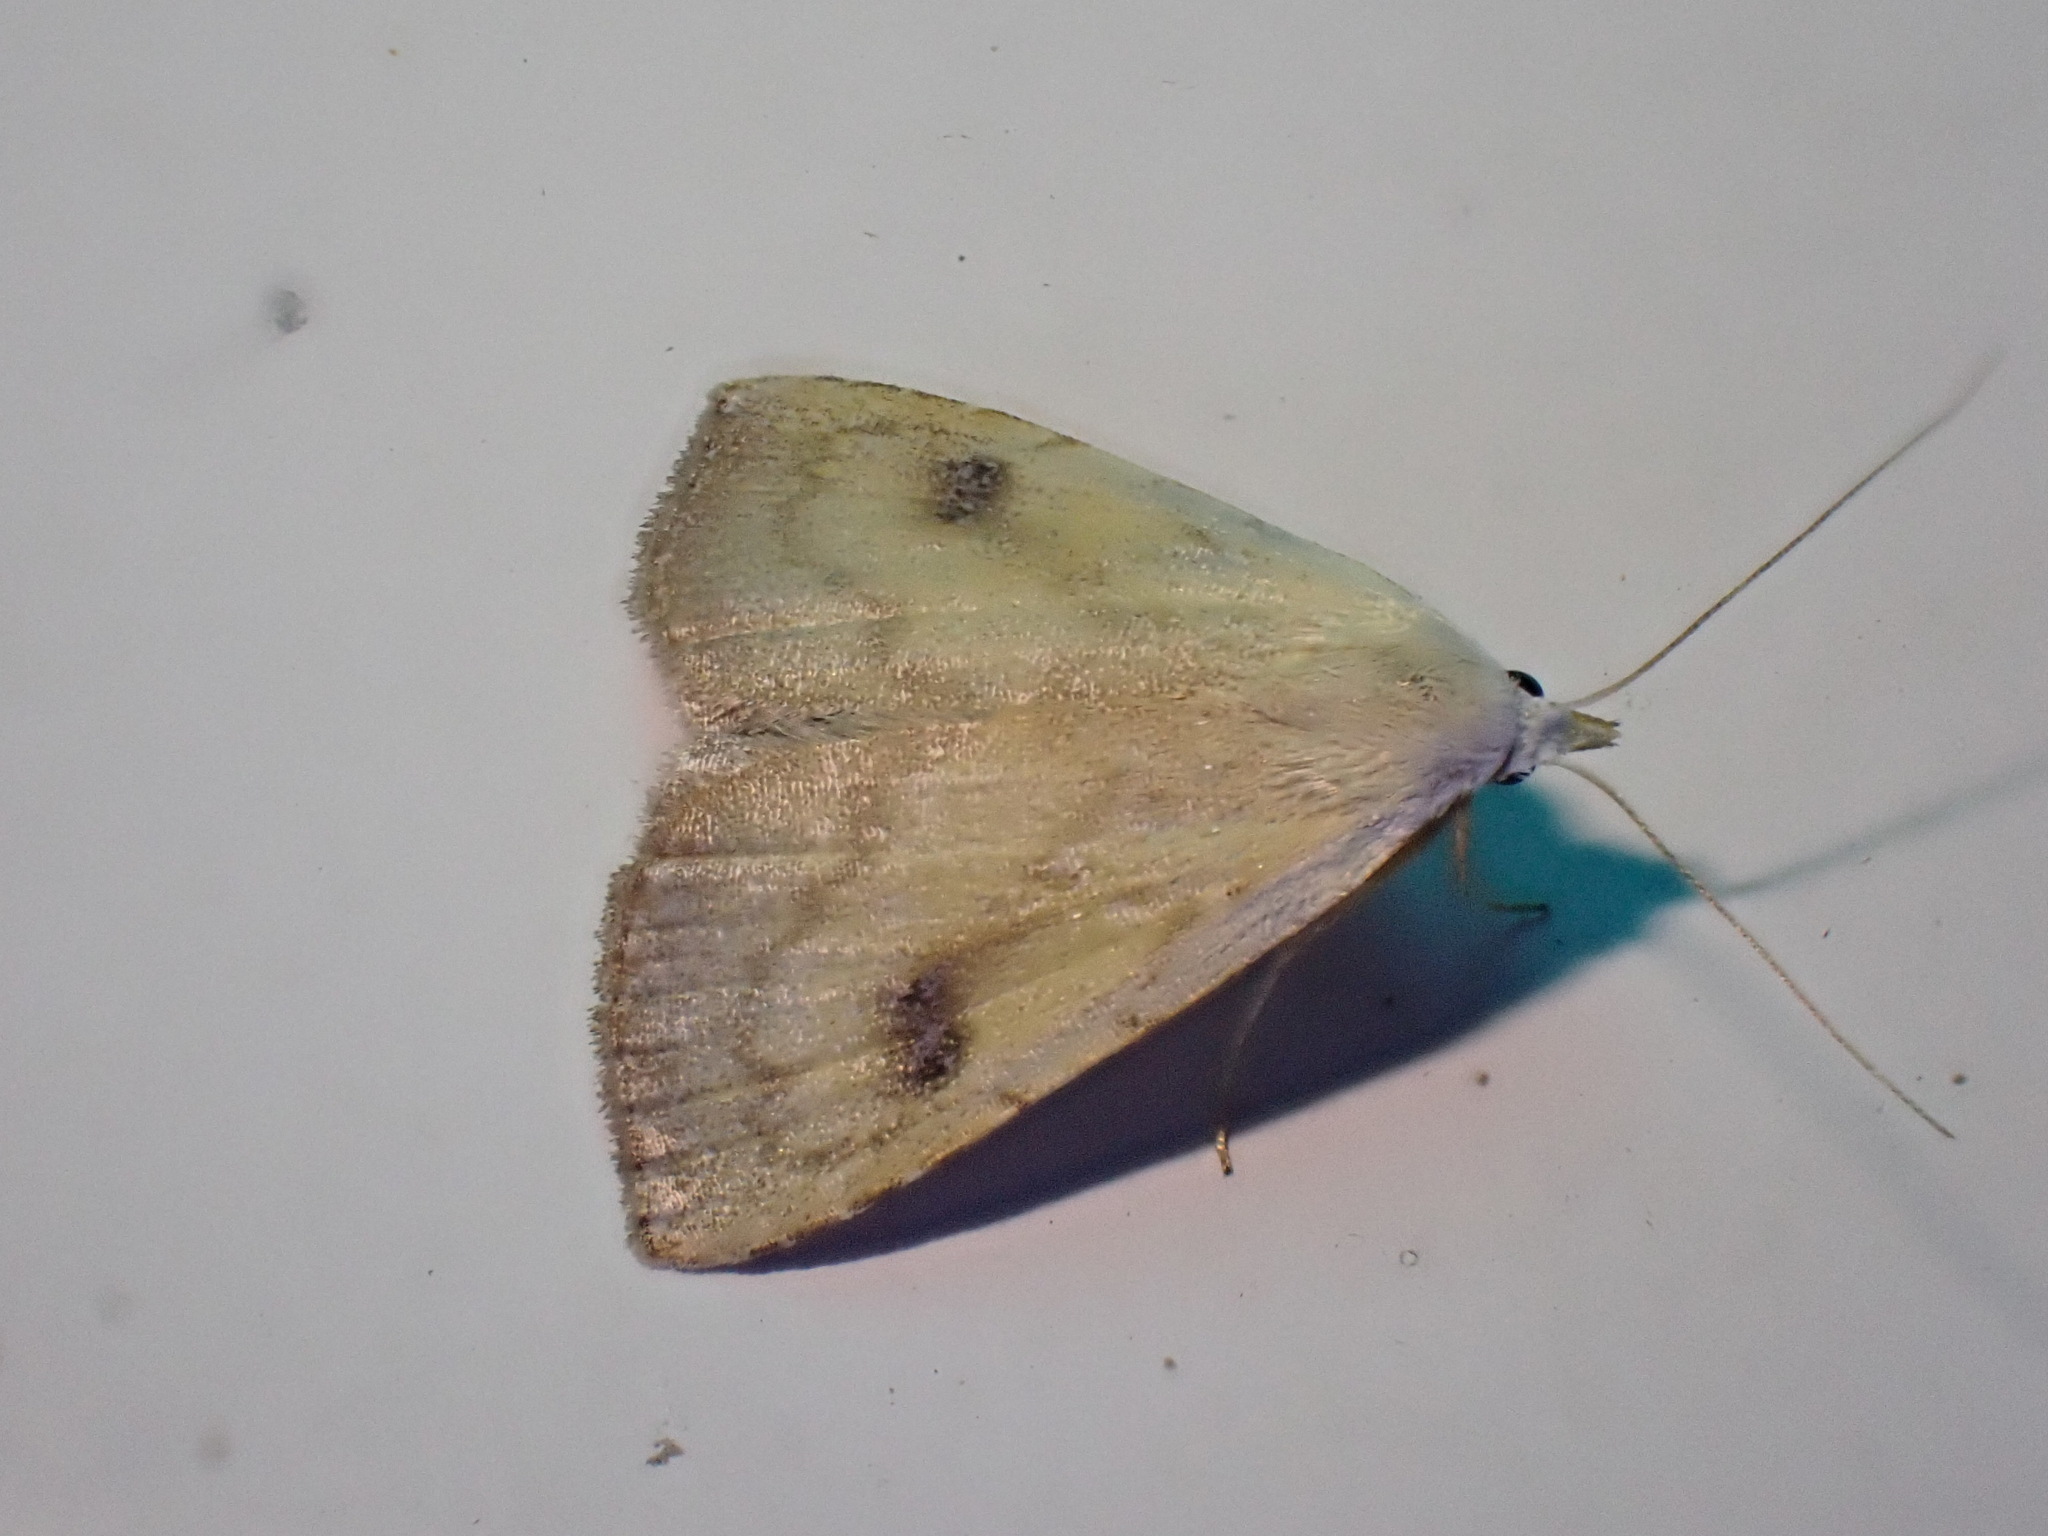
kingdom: Animalia
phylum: Arthropoda
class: Insecta
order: Lepidoptera
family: Erebidae
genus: Rivula
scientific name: Rivula sericealis
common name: Straw dot
